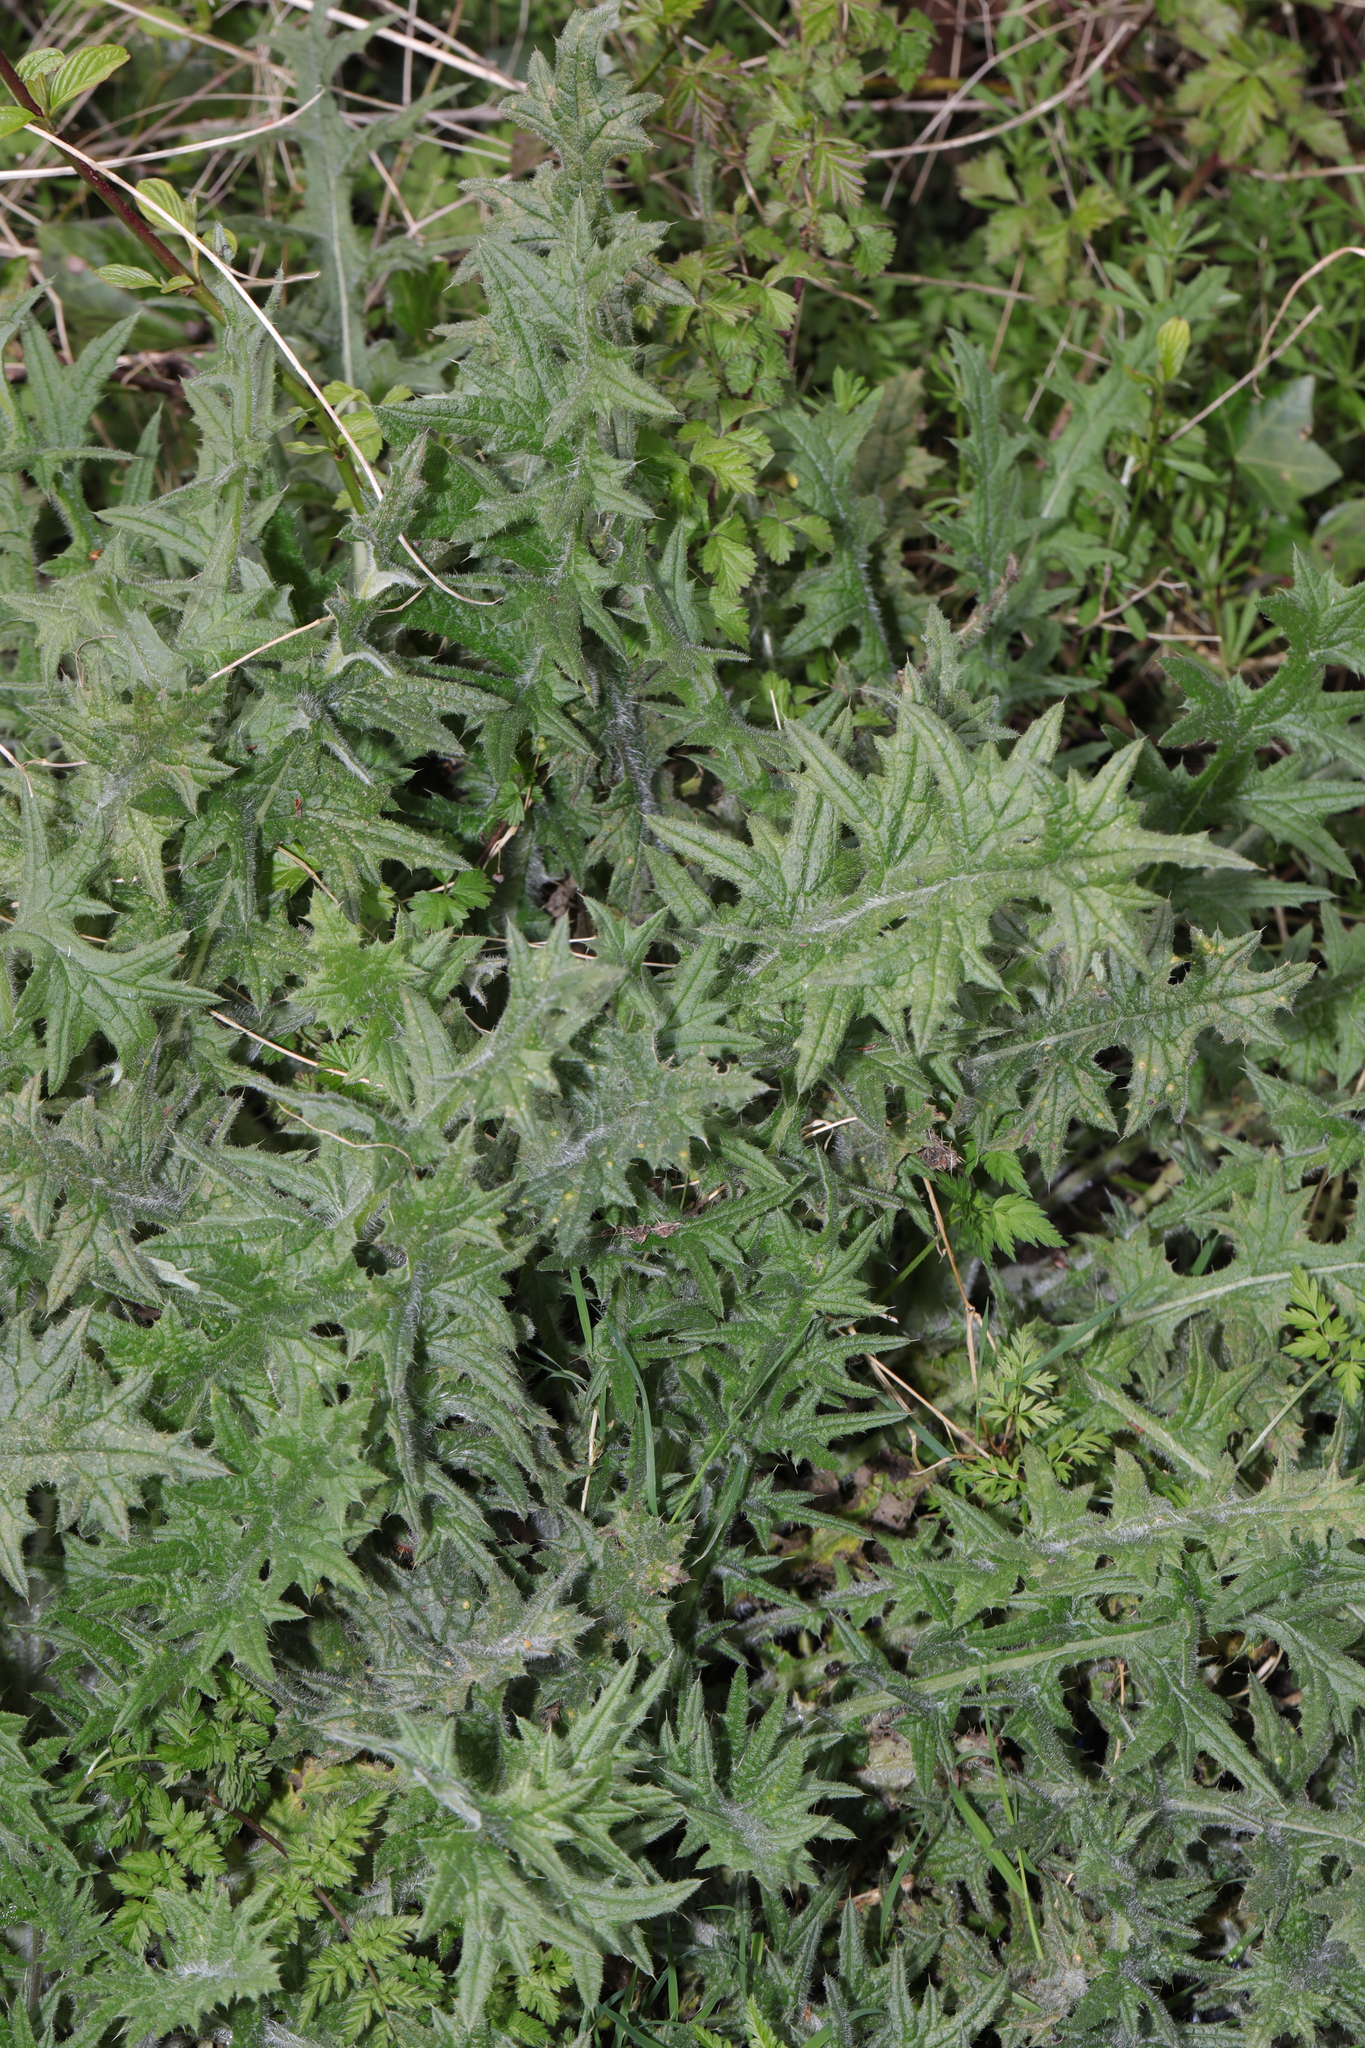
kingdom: Plantae
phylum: Tracheophyta
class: Magnoliopsida
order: Asterales
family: Asteraceae
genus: Cirsium
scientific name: Cirsium vulgare
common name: Bull thistle
